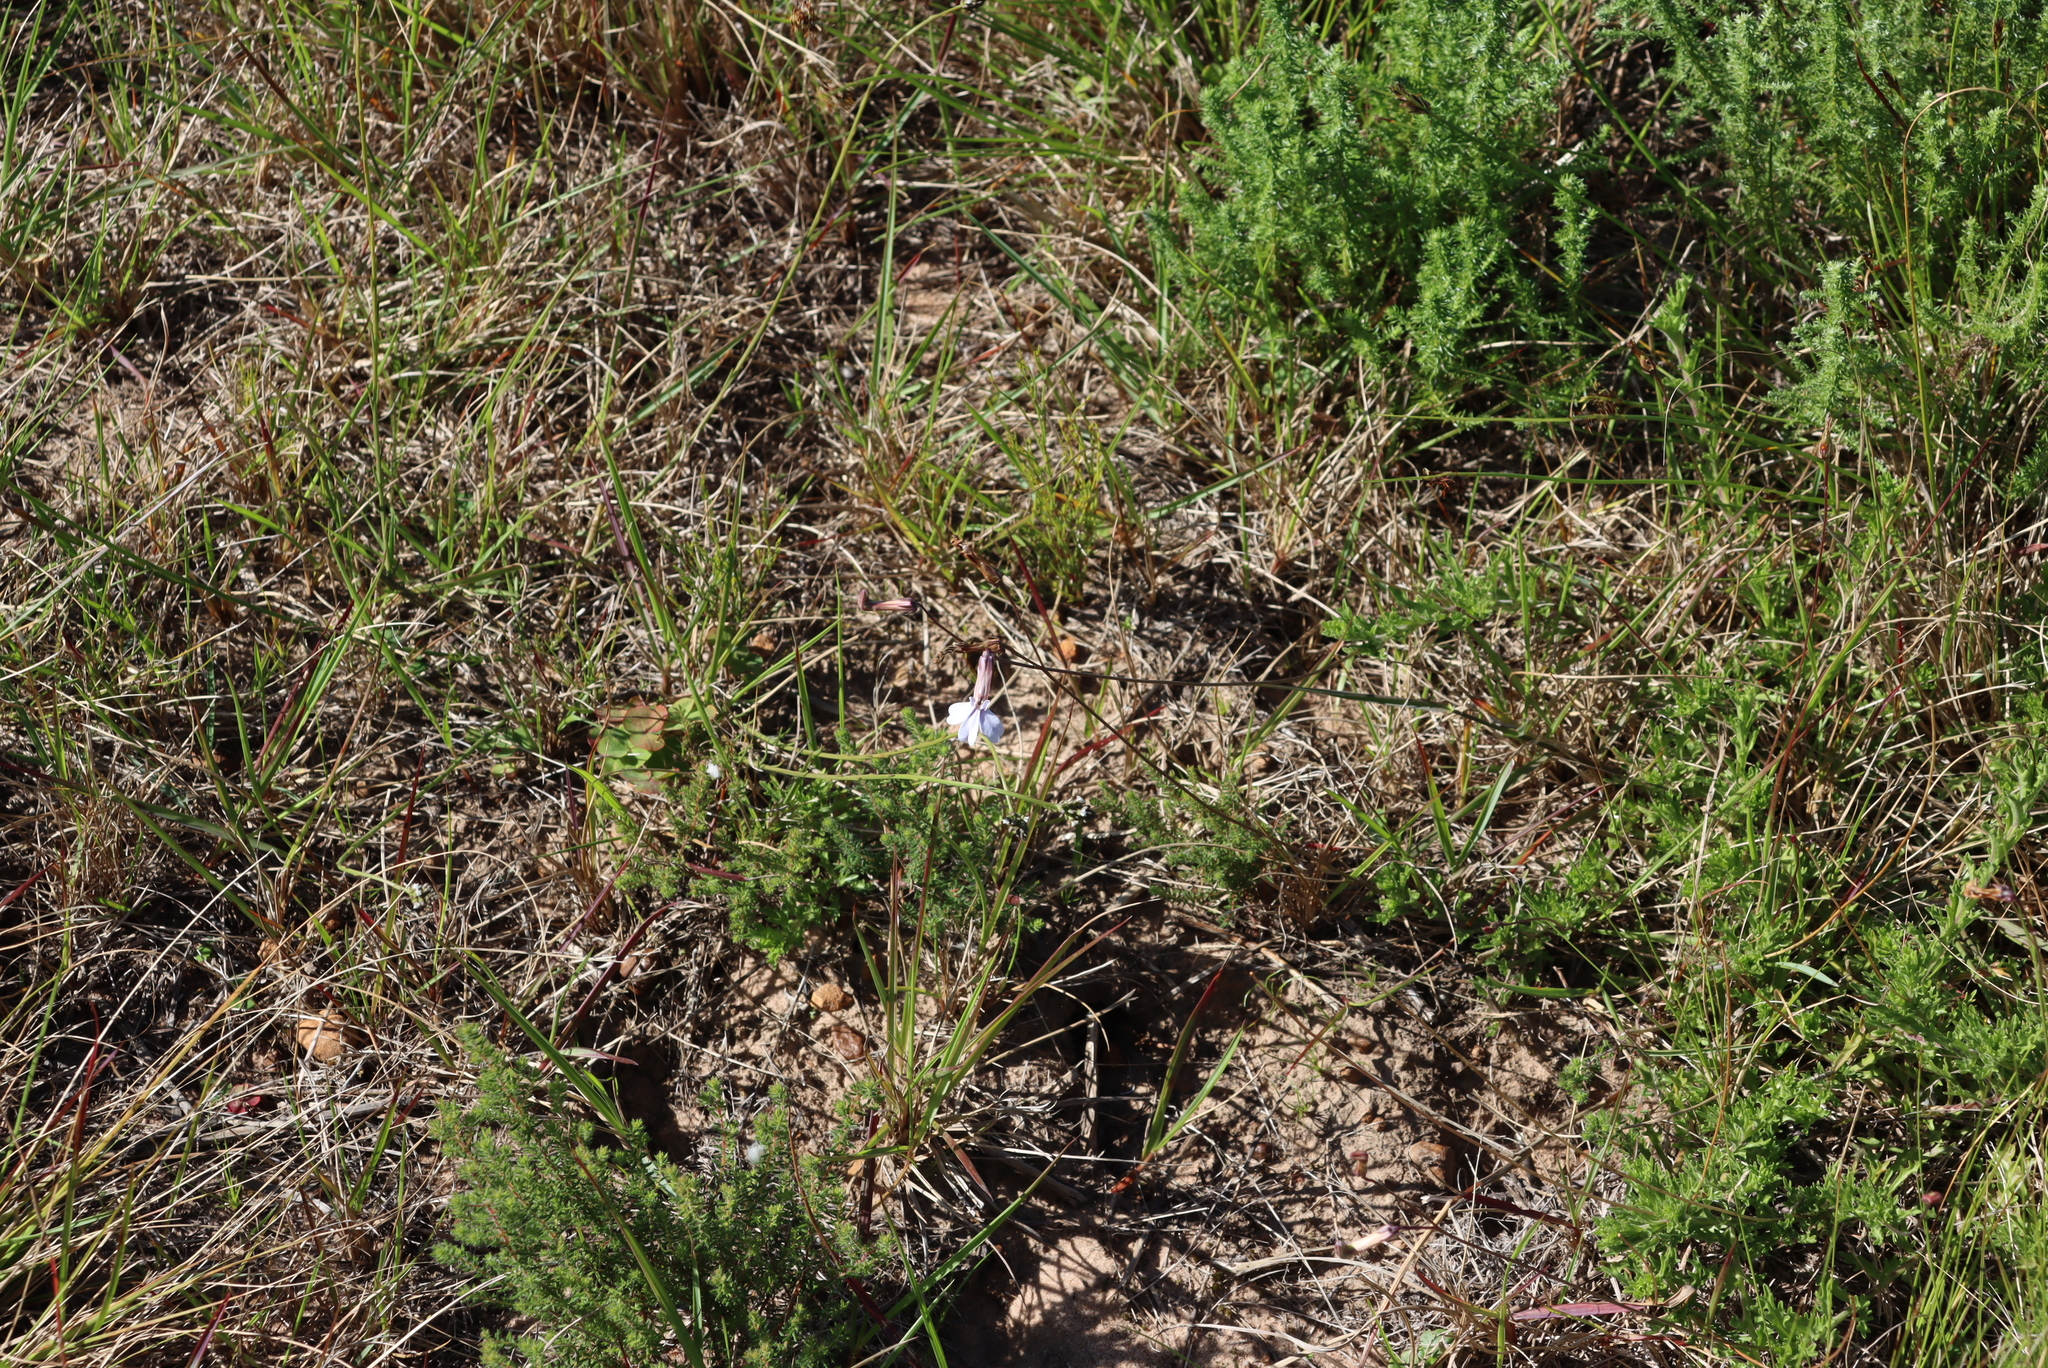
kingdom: Plantae
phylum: Tracheophyta
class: Magnoliopsida
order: Asterales
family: Campanulaceae
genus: Lobelia
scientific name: Lobelia coronopifolia
